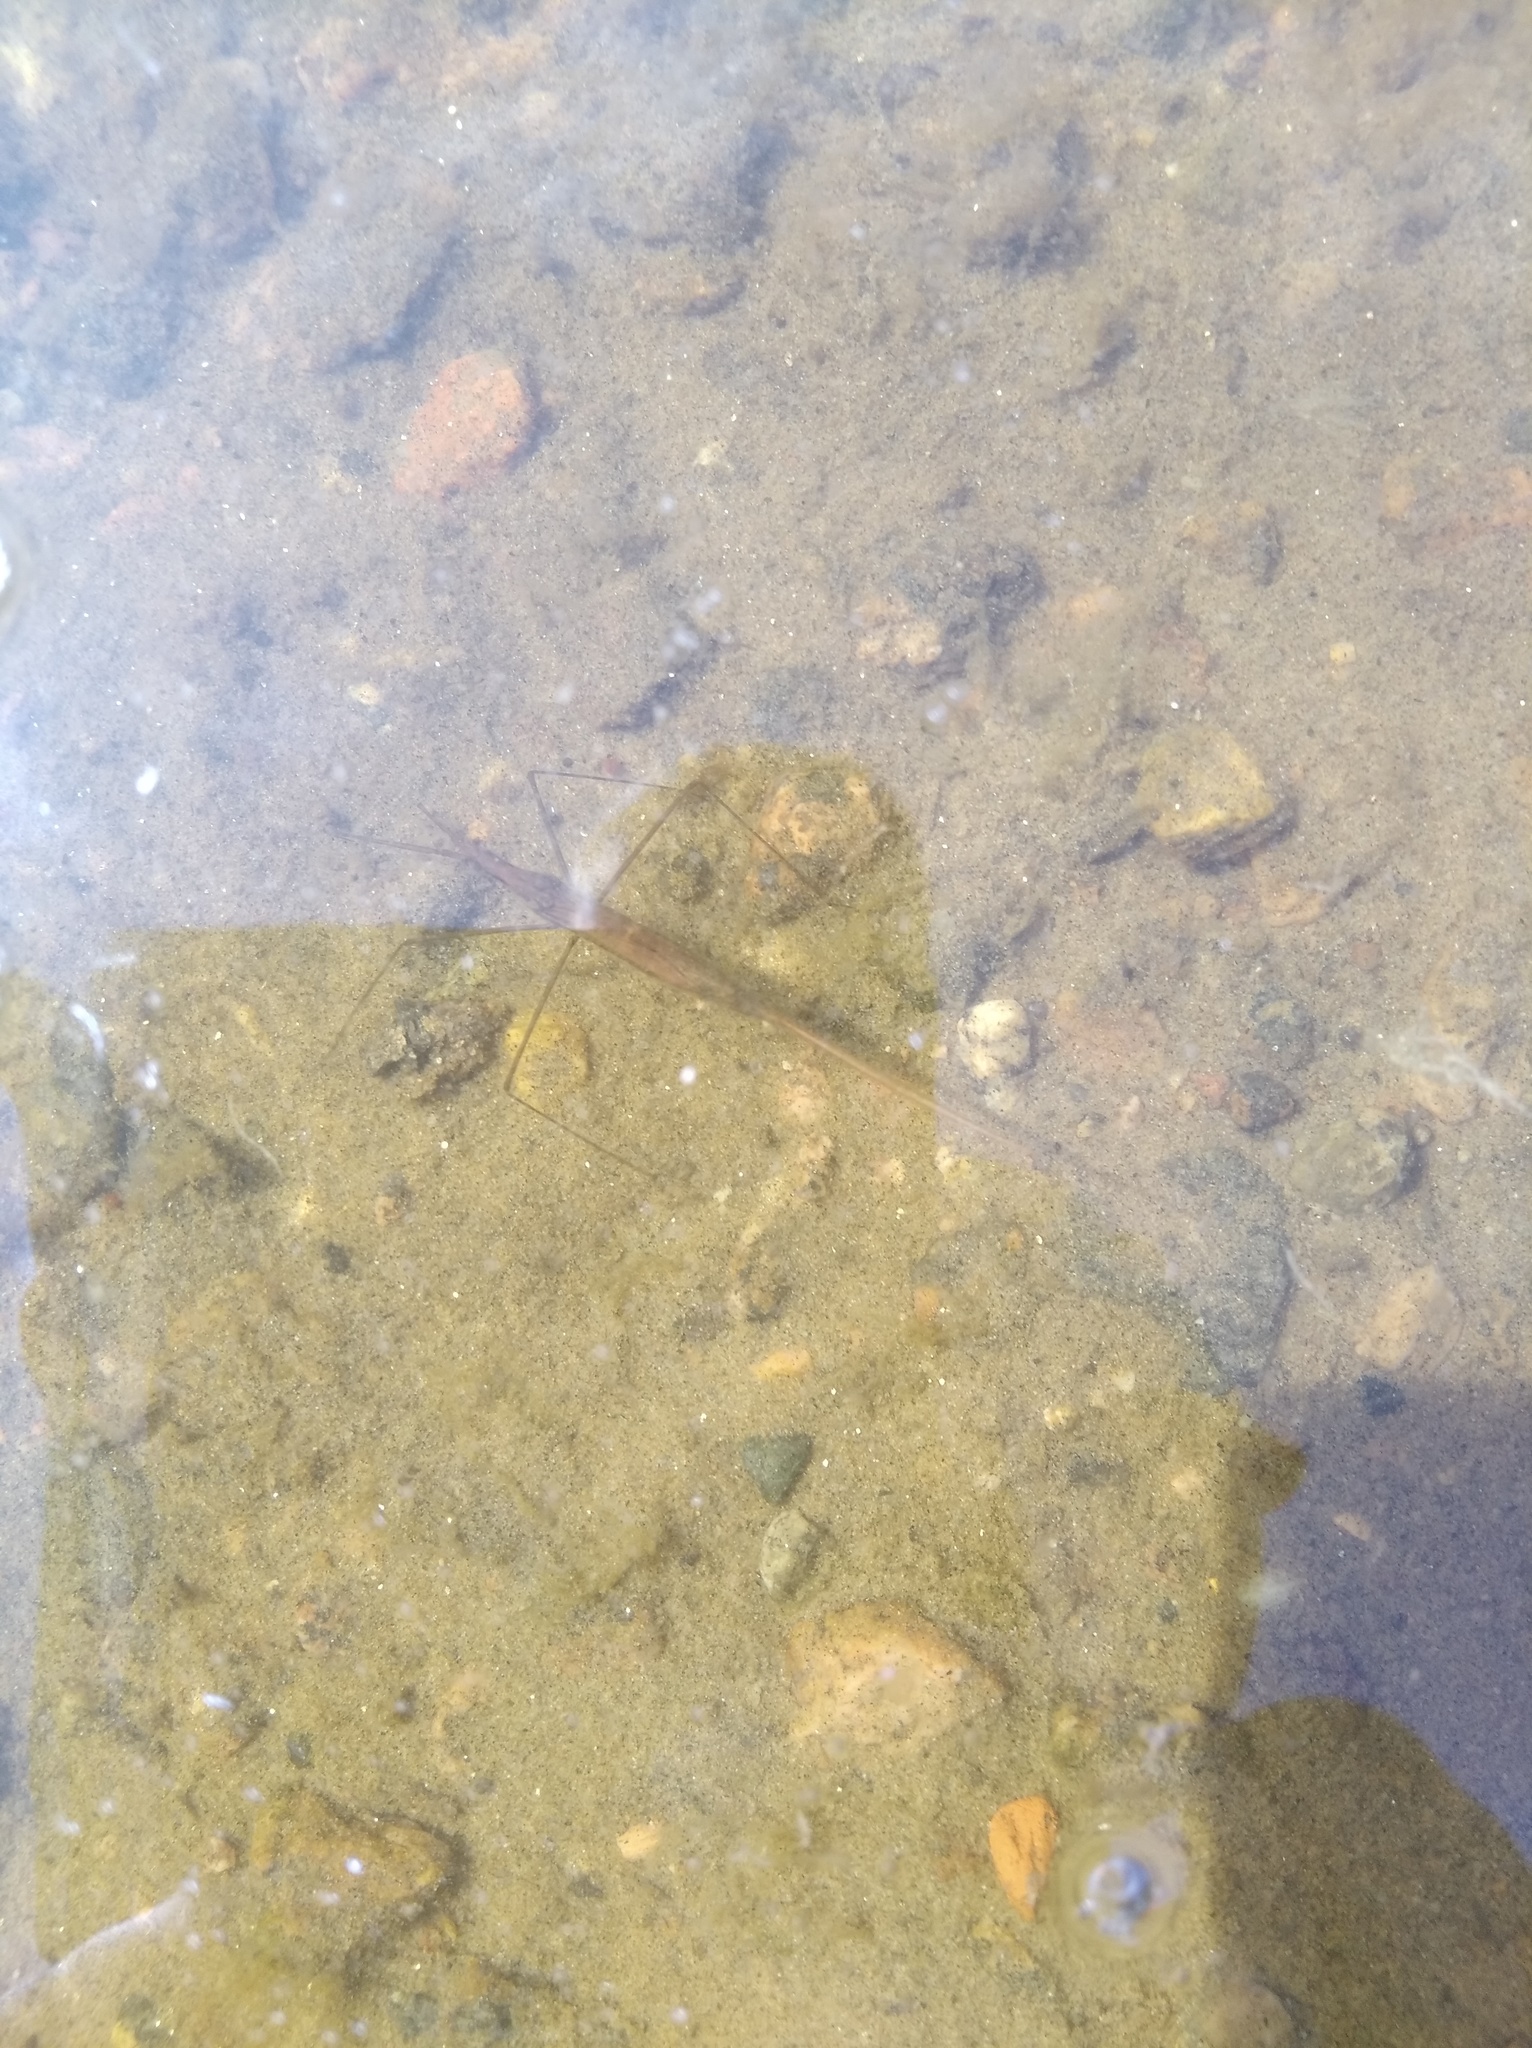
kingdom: Animalia
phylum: Arthropoda
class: Insecta
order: Hemiptera
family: Nepidae
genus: Ranatra
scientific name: Ranatra linearis
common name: Water stick insect
